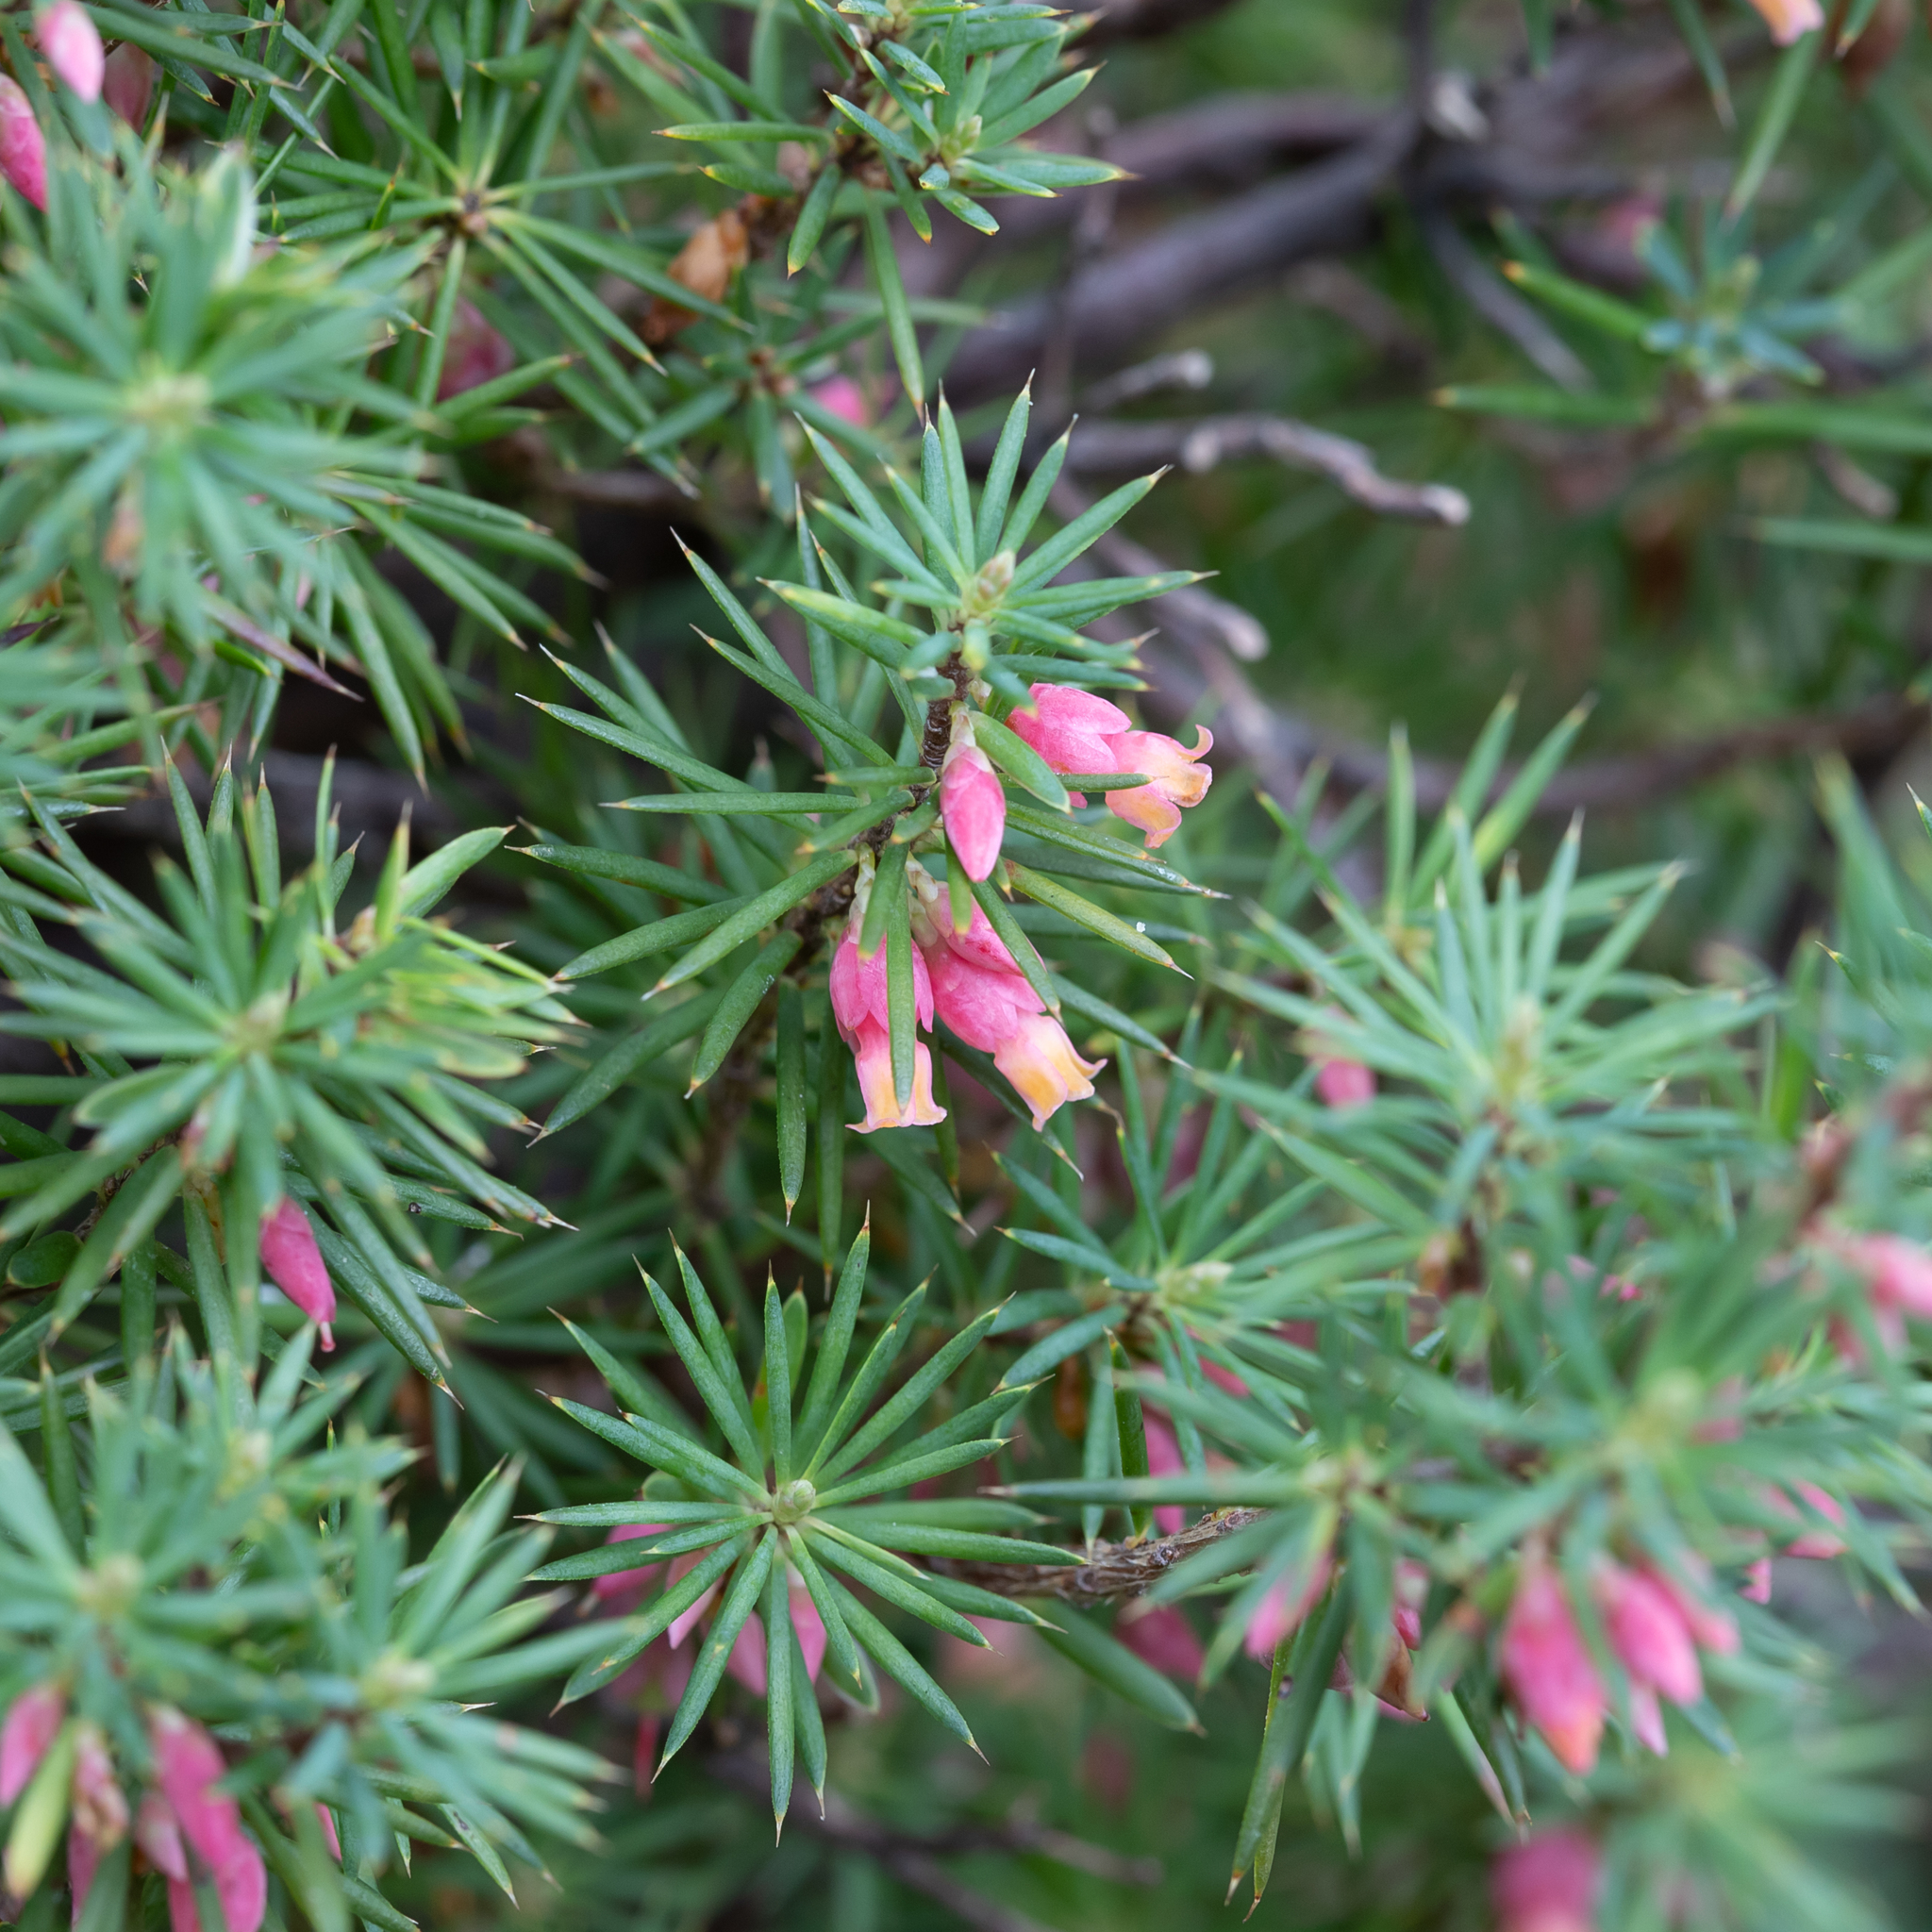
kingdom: Plantae
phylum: Tracheophyta
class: Magnoliopsida
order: Ericales
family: Ericaceae
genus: Brachyloma
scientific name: Brachyloma ericoides
